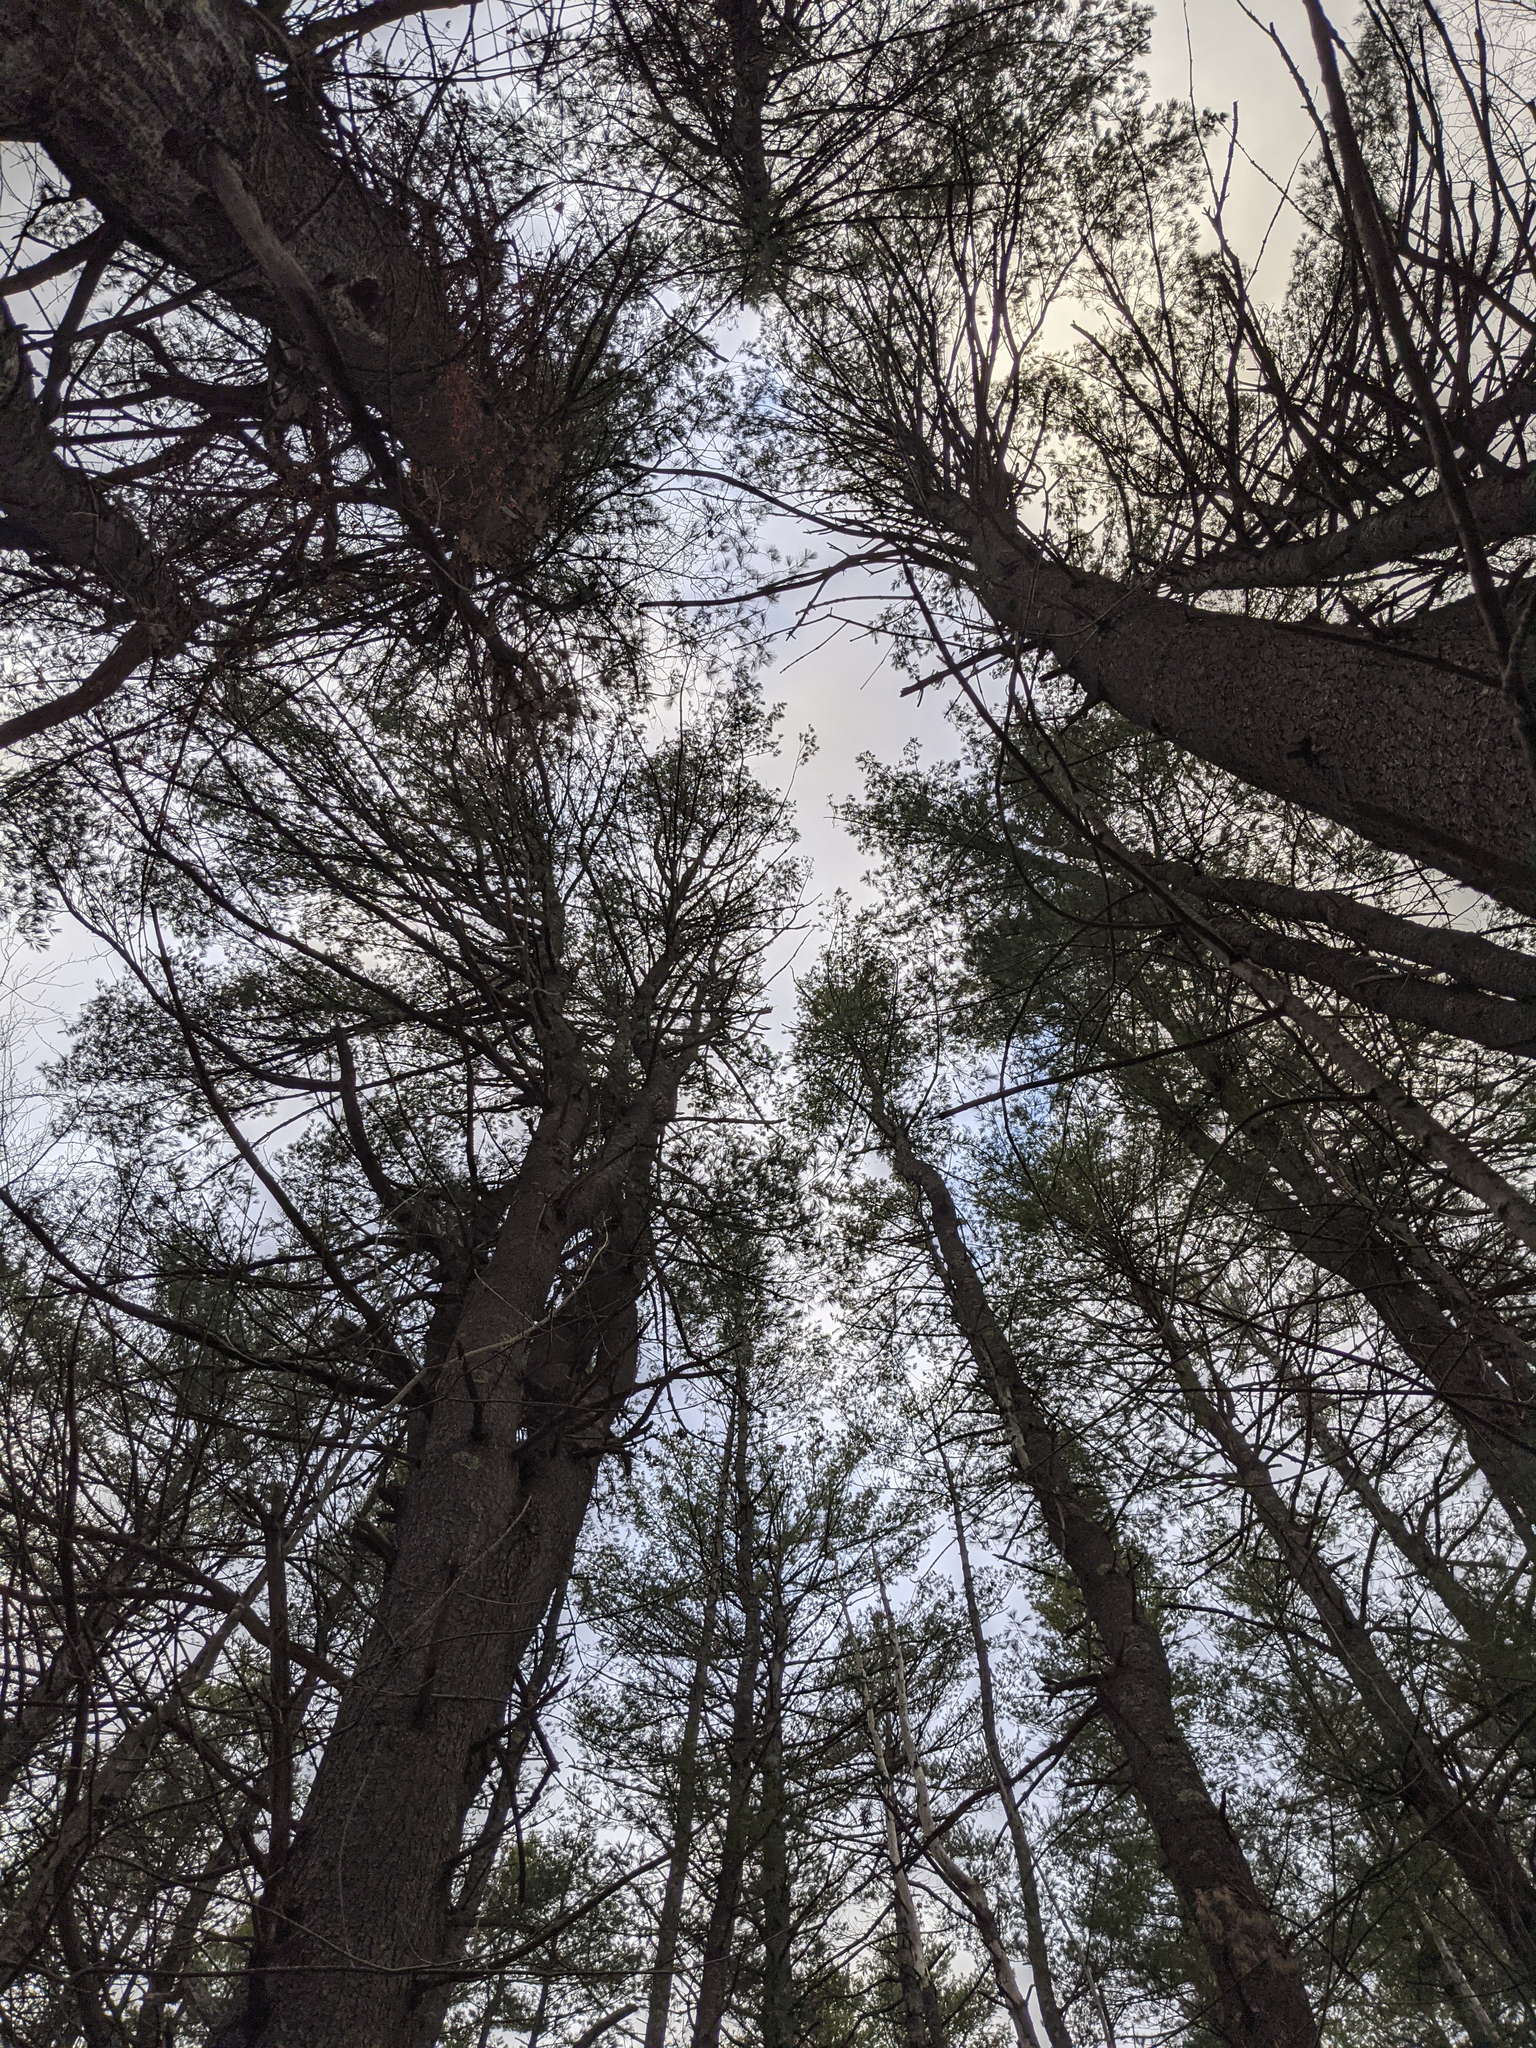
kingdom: Plantae
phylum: Tracheophyta
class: Pinopsida
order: Pinales
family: Pinaceae
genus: Pinus
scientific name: Pinus strobus
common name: Weymouth pine
